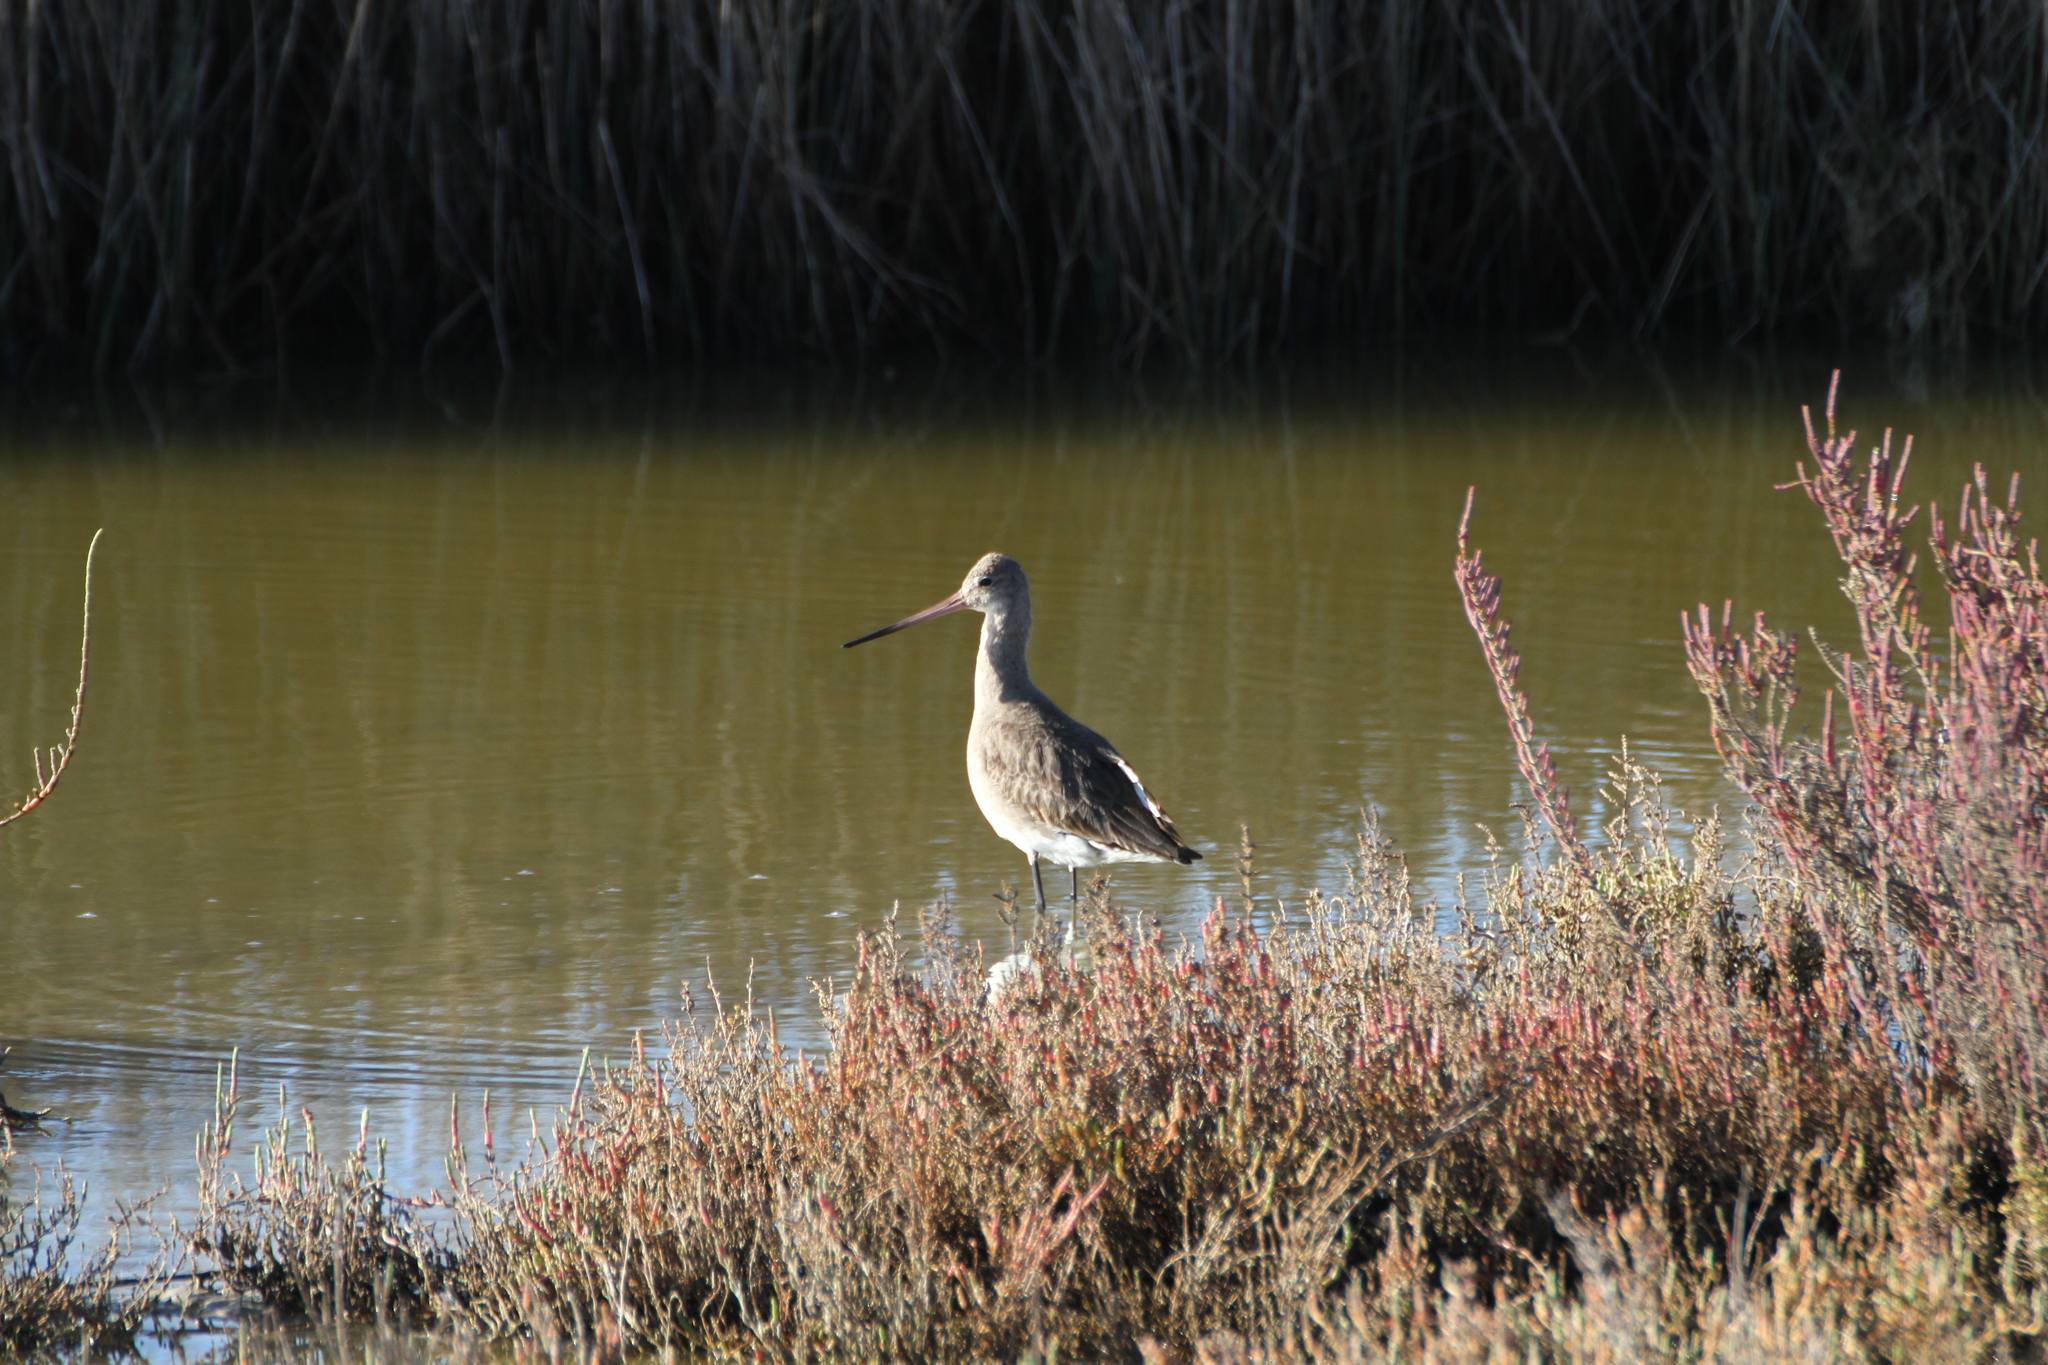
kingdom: Animalia
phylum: Chordata
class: Aves
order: Charadriiformes
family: Scolopacidae
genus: Limosa
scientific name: Limosa limosa
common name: Black-tailed godwit
